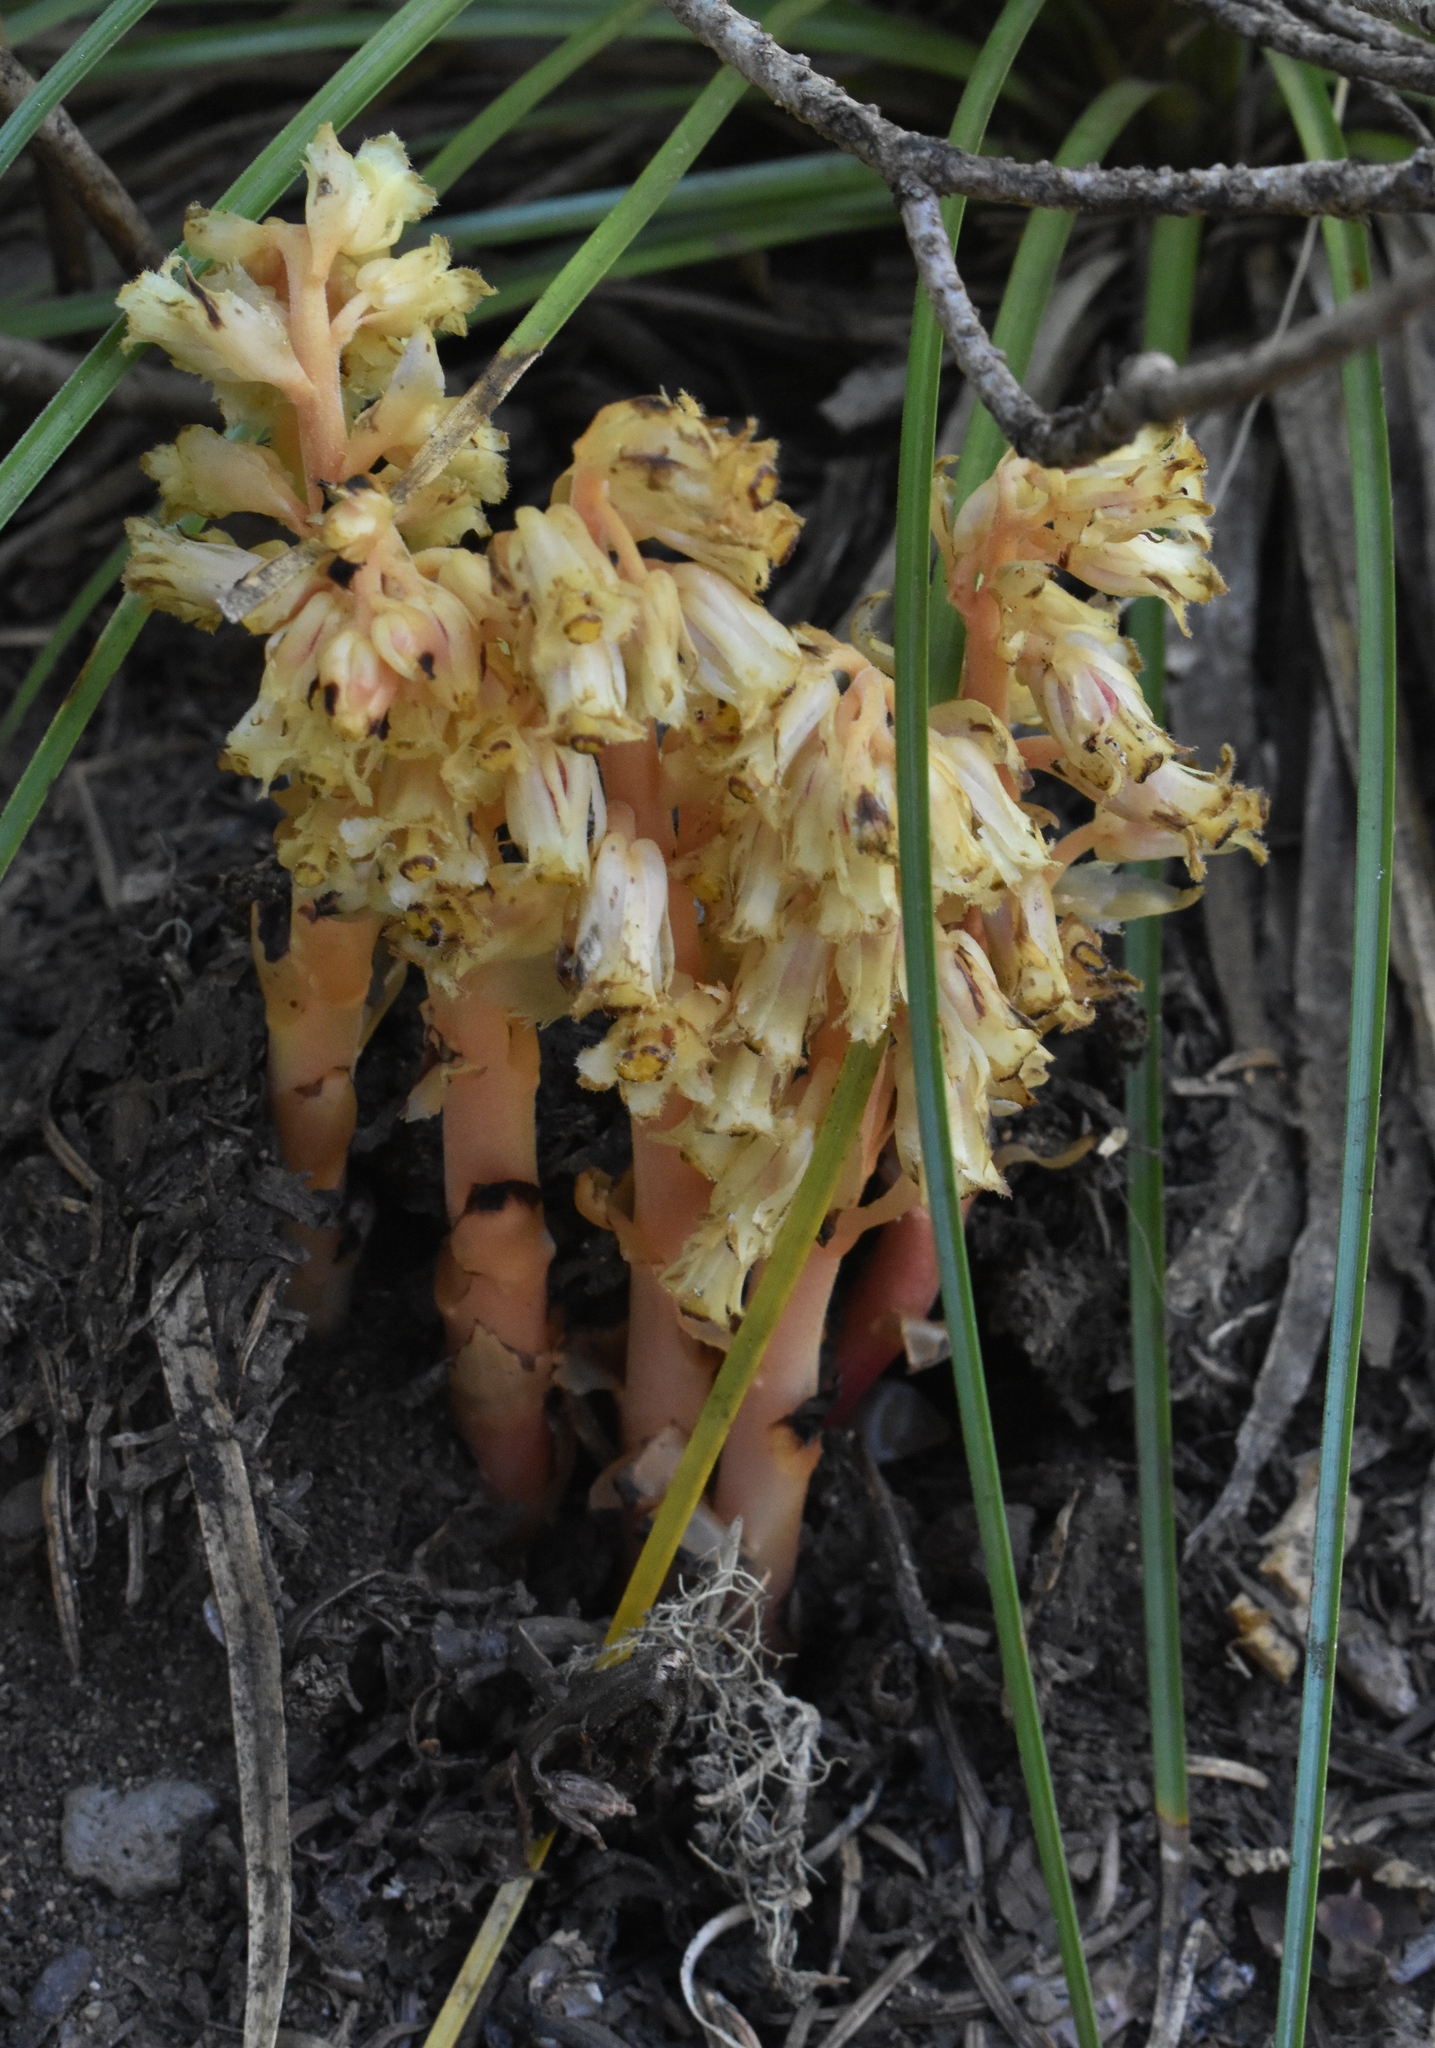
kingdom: Plantae
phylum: Tracheophyta
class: Magnoliopsida
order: Ericales
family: Ericaceae
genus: Hypopitys
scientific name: Hypopitys monotropa
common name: Yellow bird's-nest
